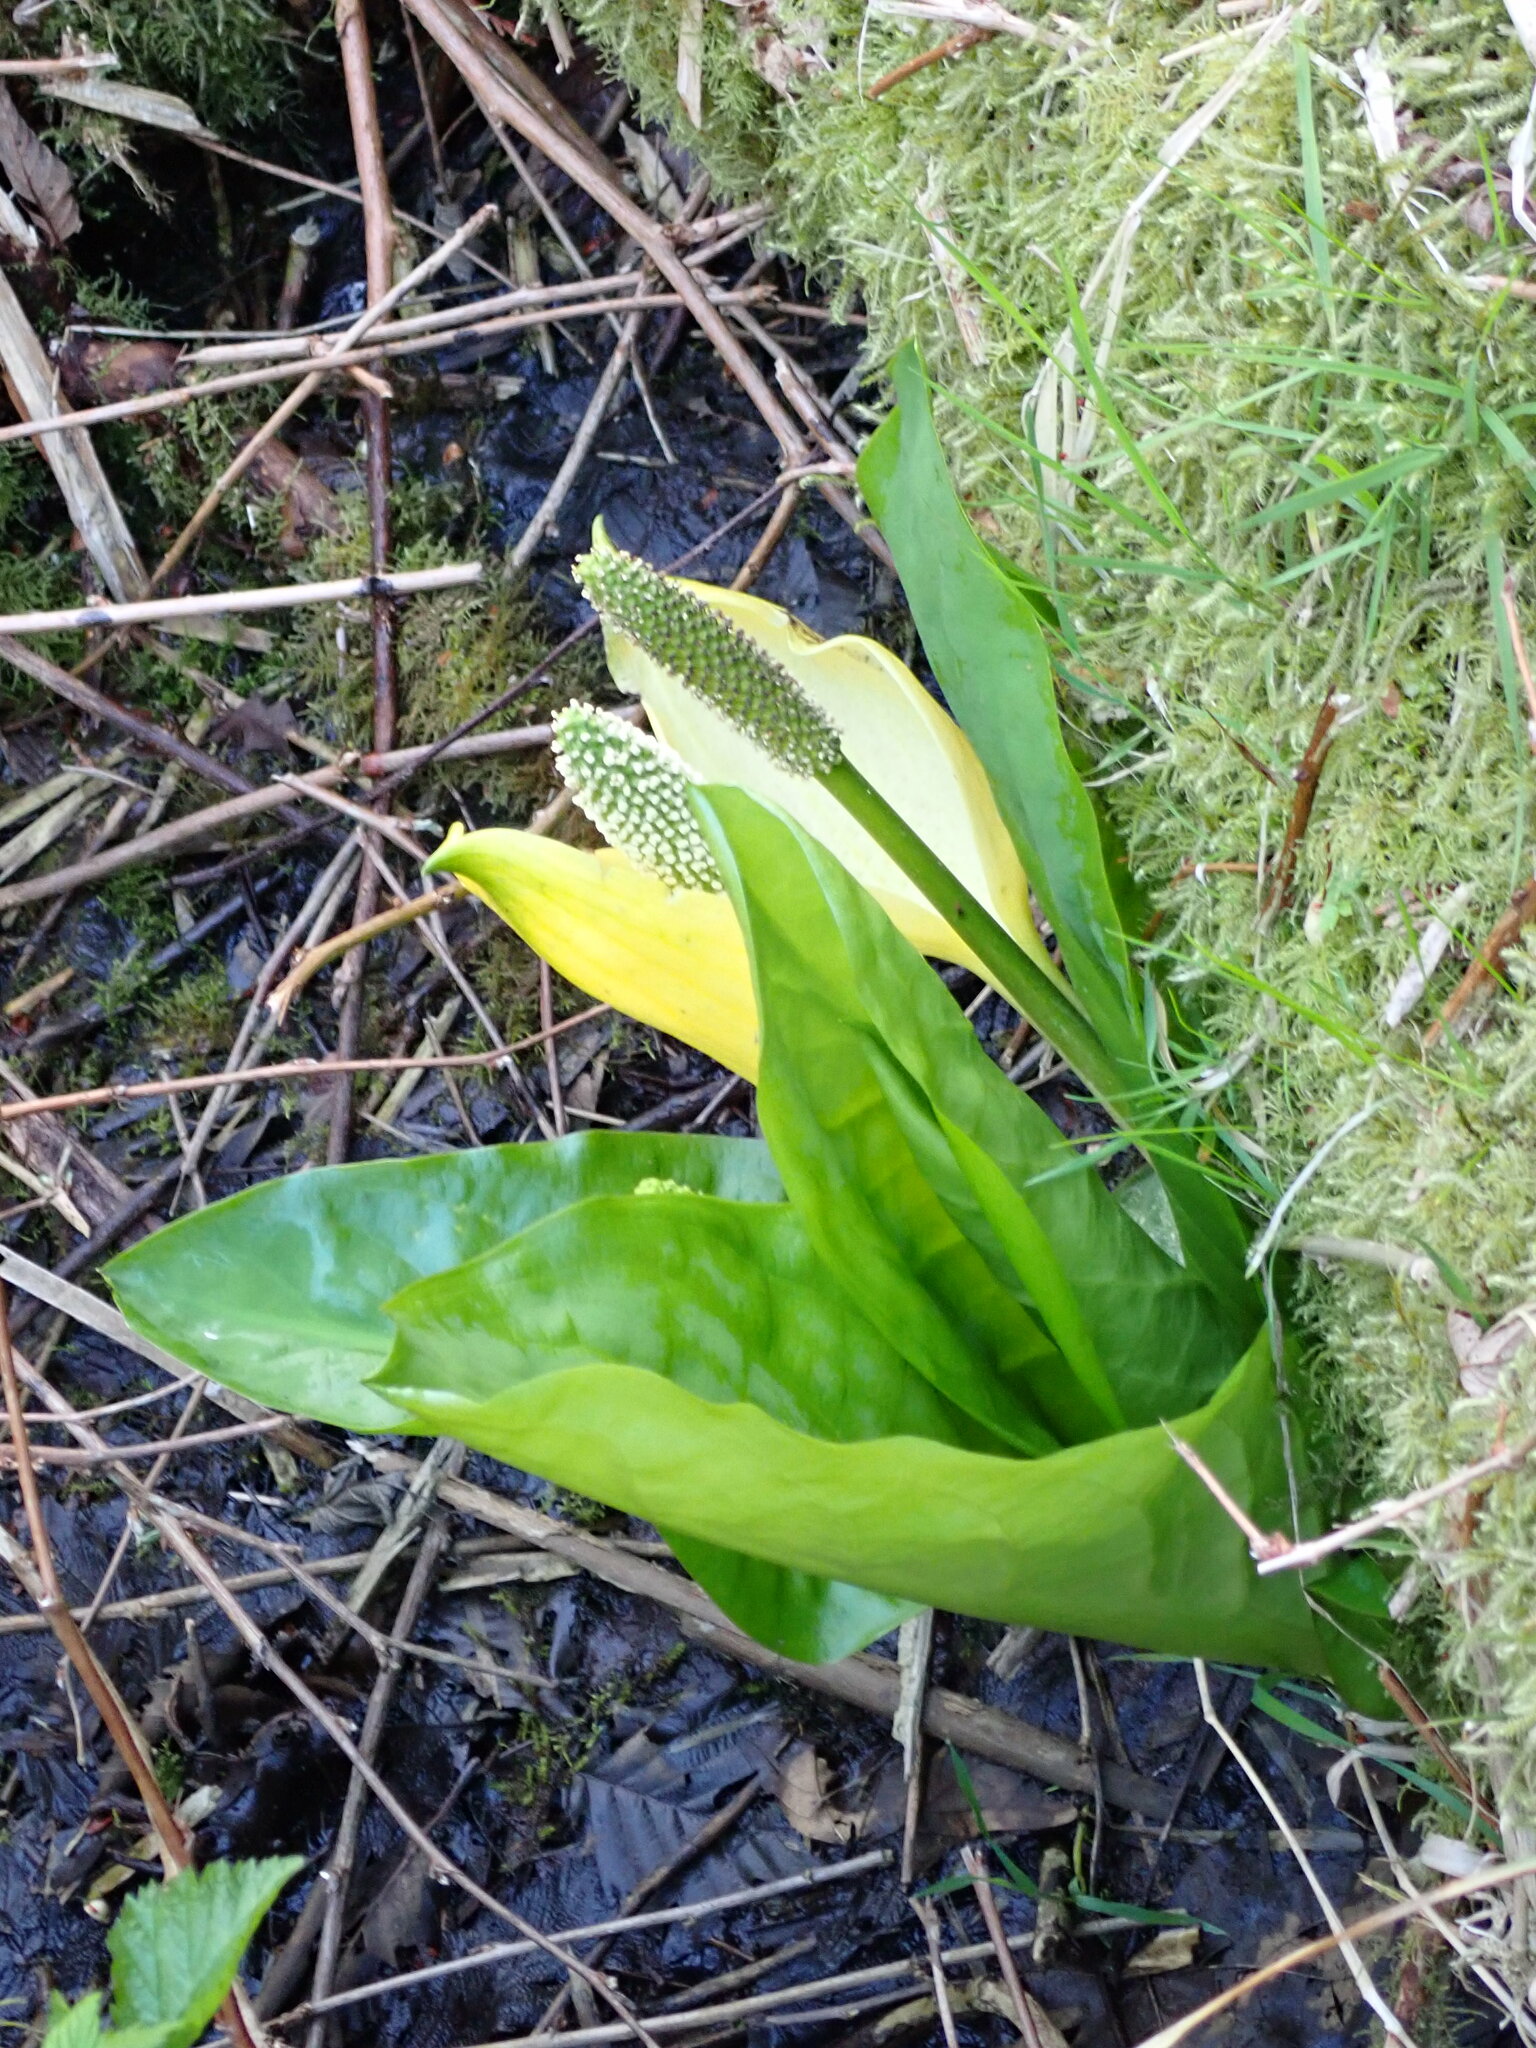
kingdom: Plantae
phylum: Tracheophyta
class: Liliopsida
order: Alismatales
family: Araceae
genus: Lysichiton
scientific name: Lysichiton americanus
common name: American skunk cabbage
